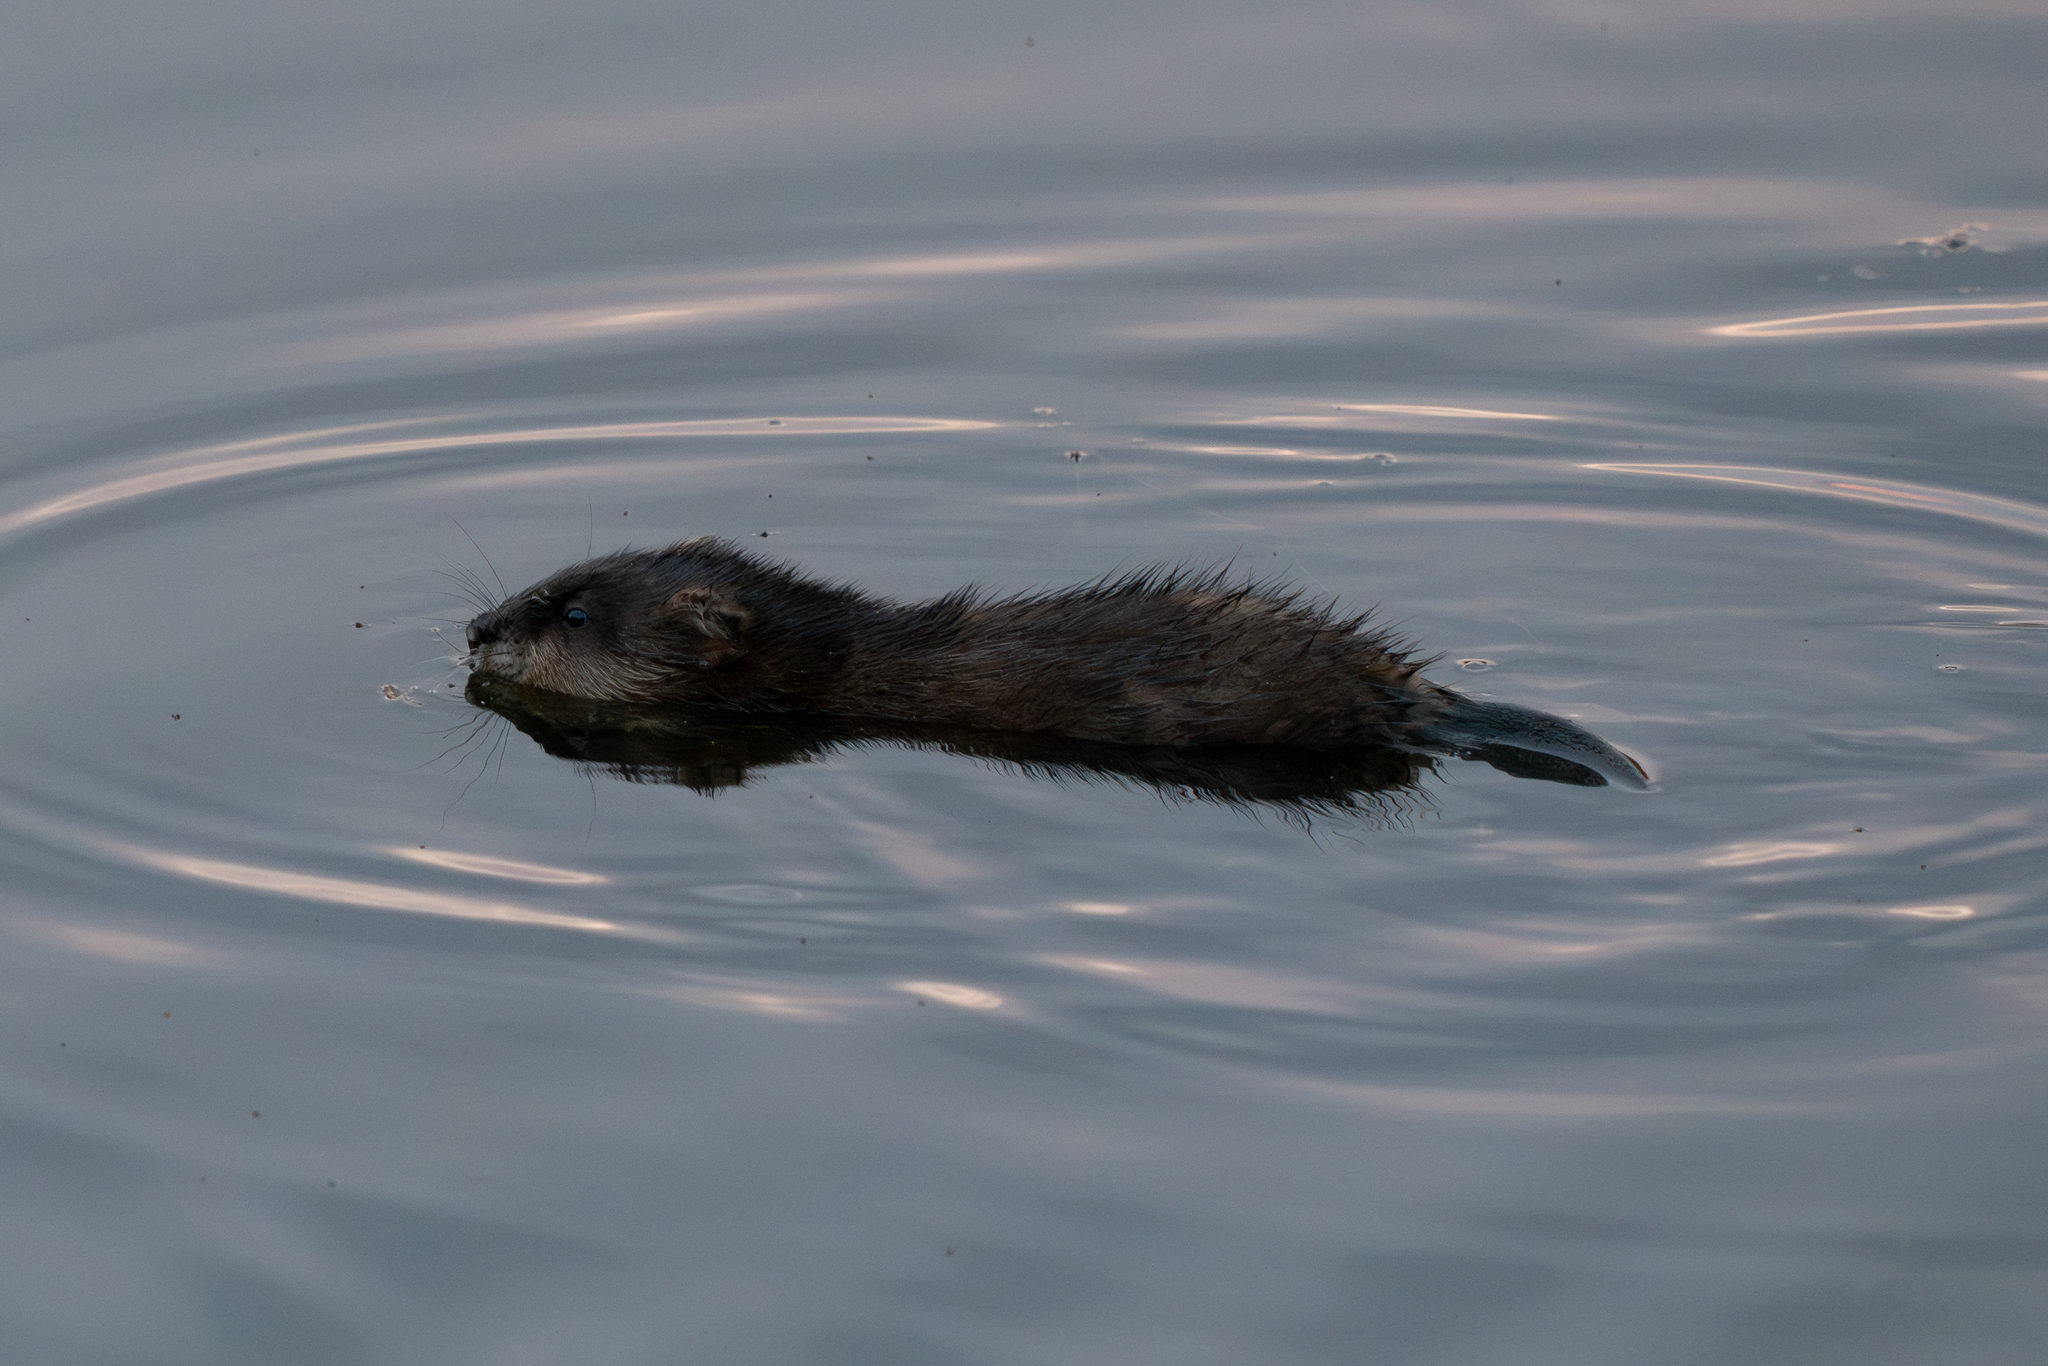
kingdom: Animalia
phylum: Chordata
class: Mammalia
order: Rodentia
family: Cricetidae
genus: Ondatra
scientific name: Ondatra zibethicus
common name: Muskrat
